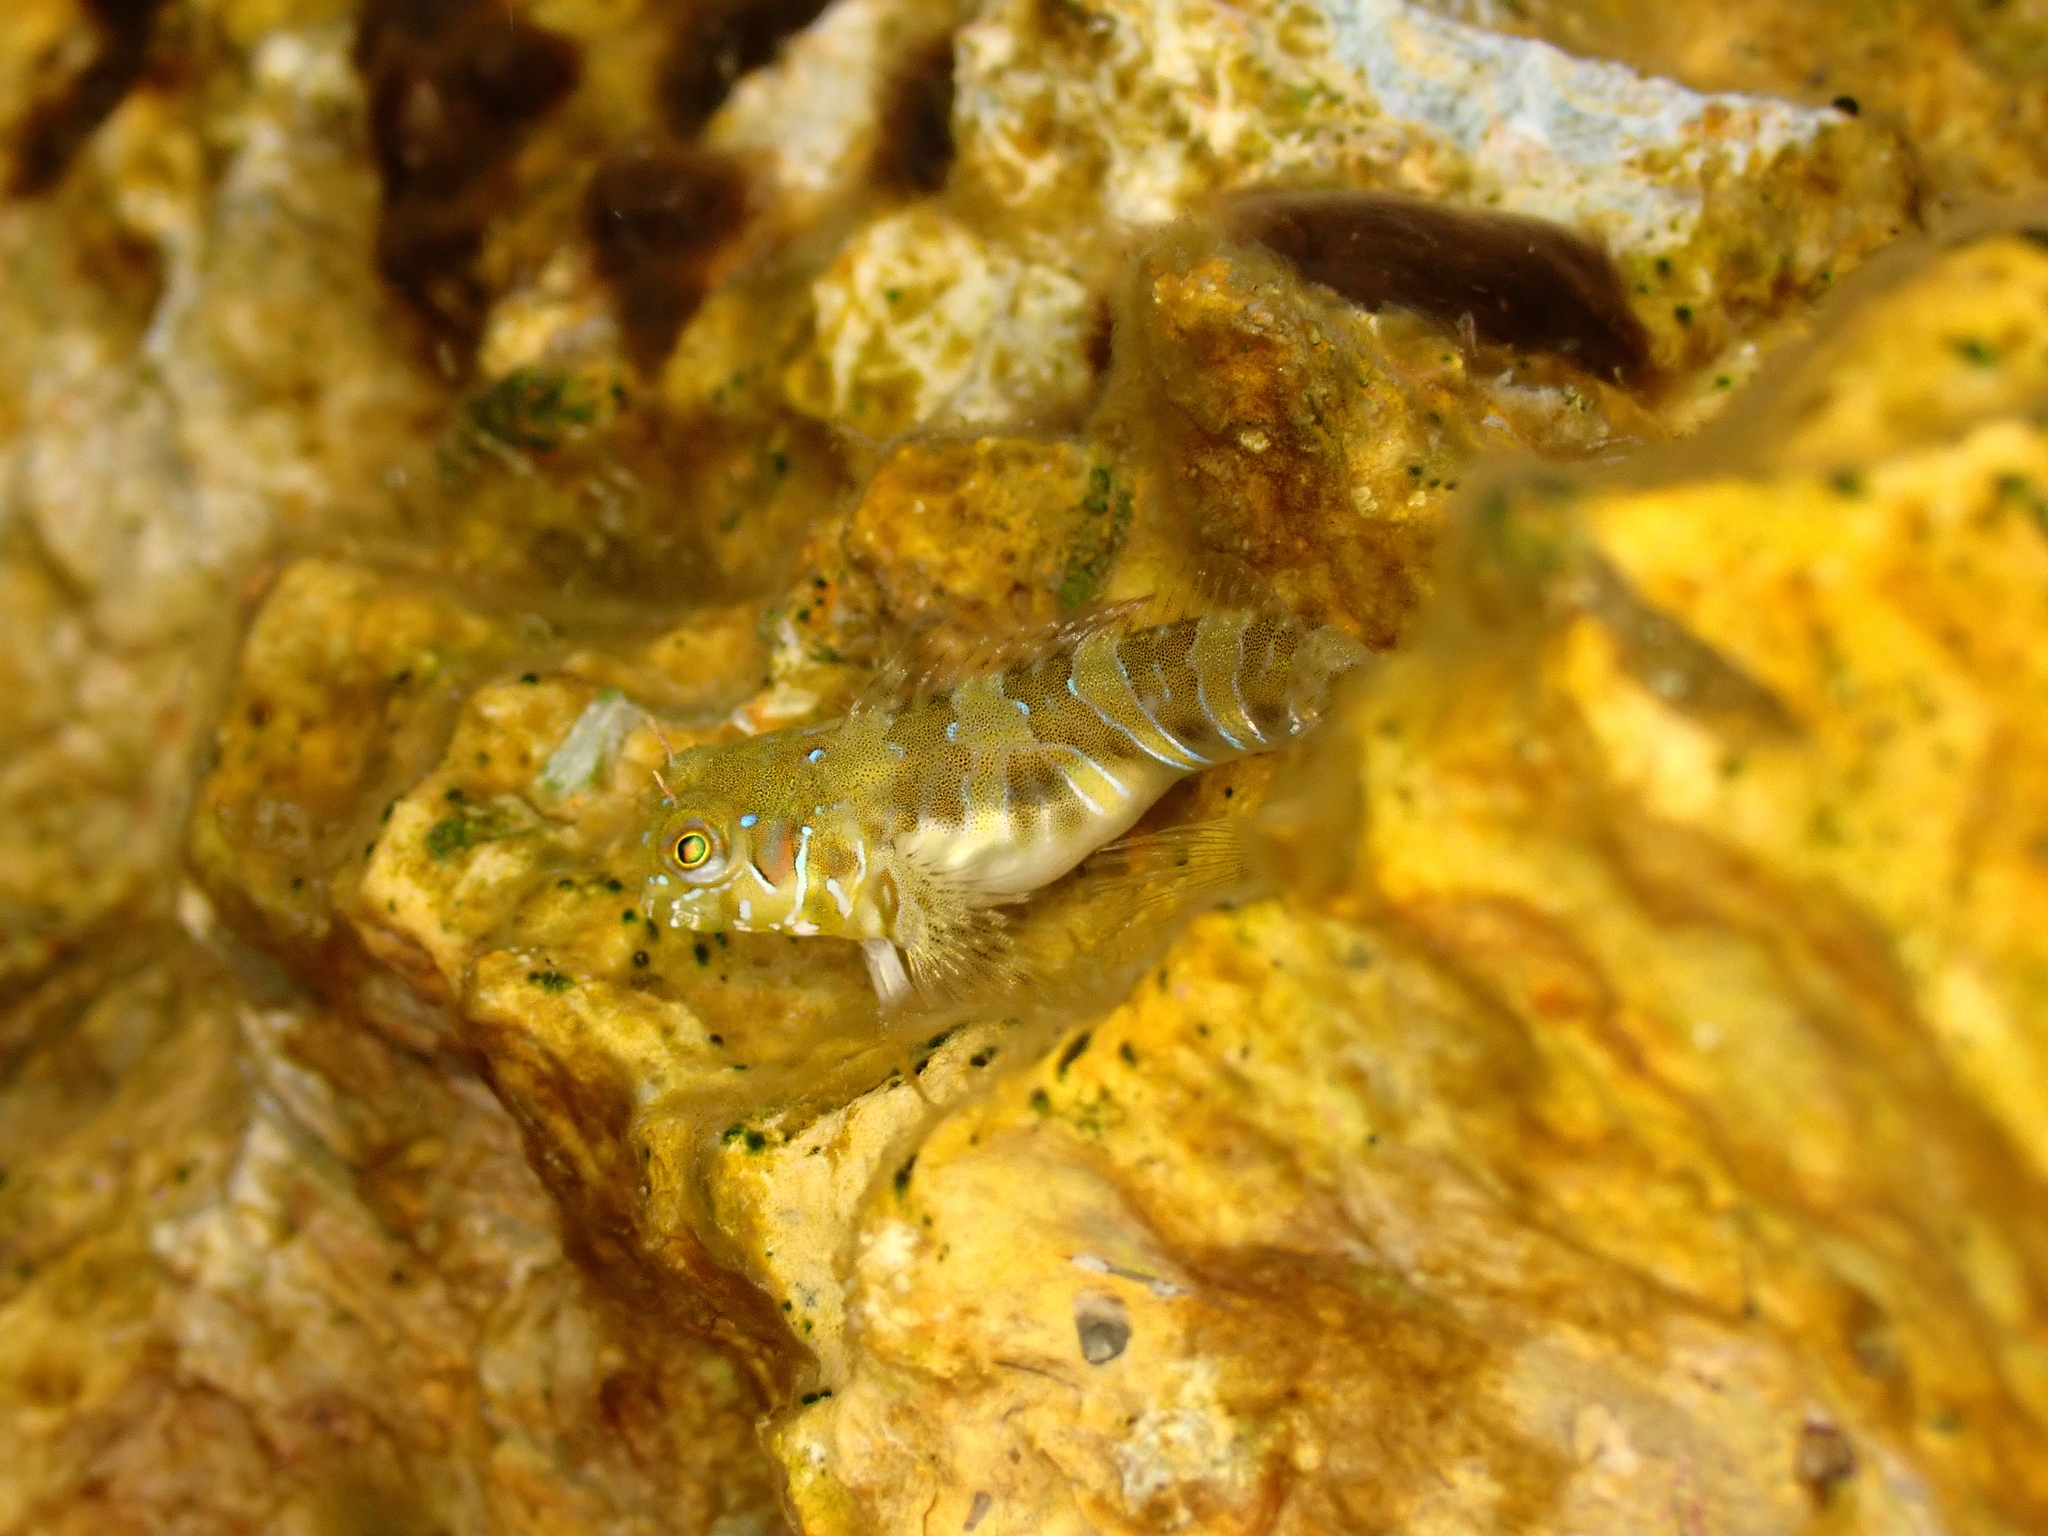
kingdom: Animalia
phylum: Chordata
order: Perciformes
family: Blenniidae
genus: Aidablennius
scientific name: Aidablennius sphynx
